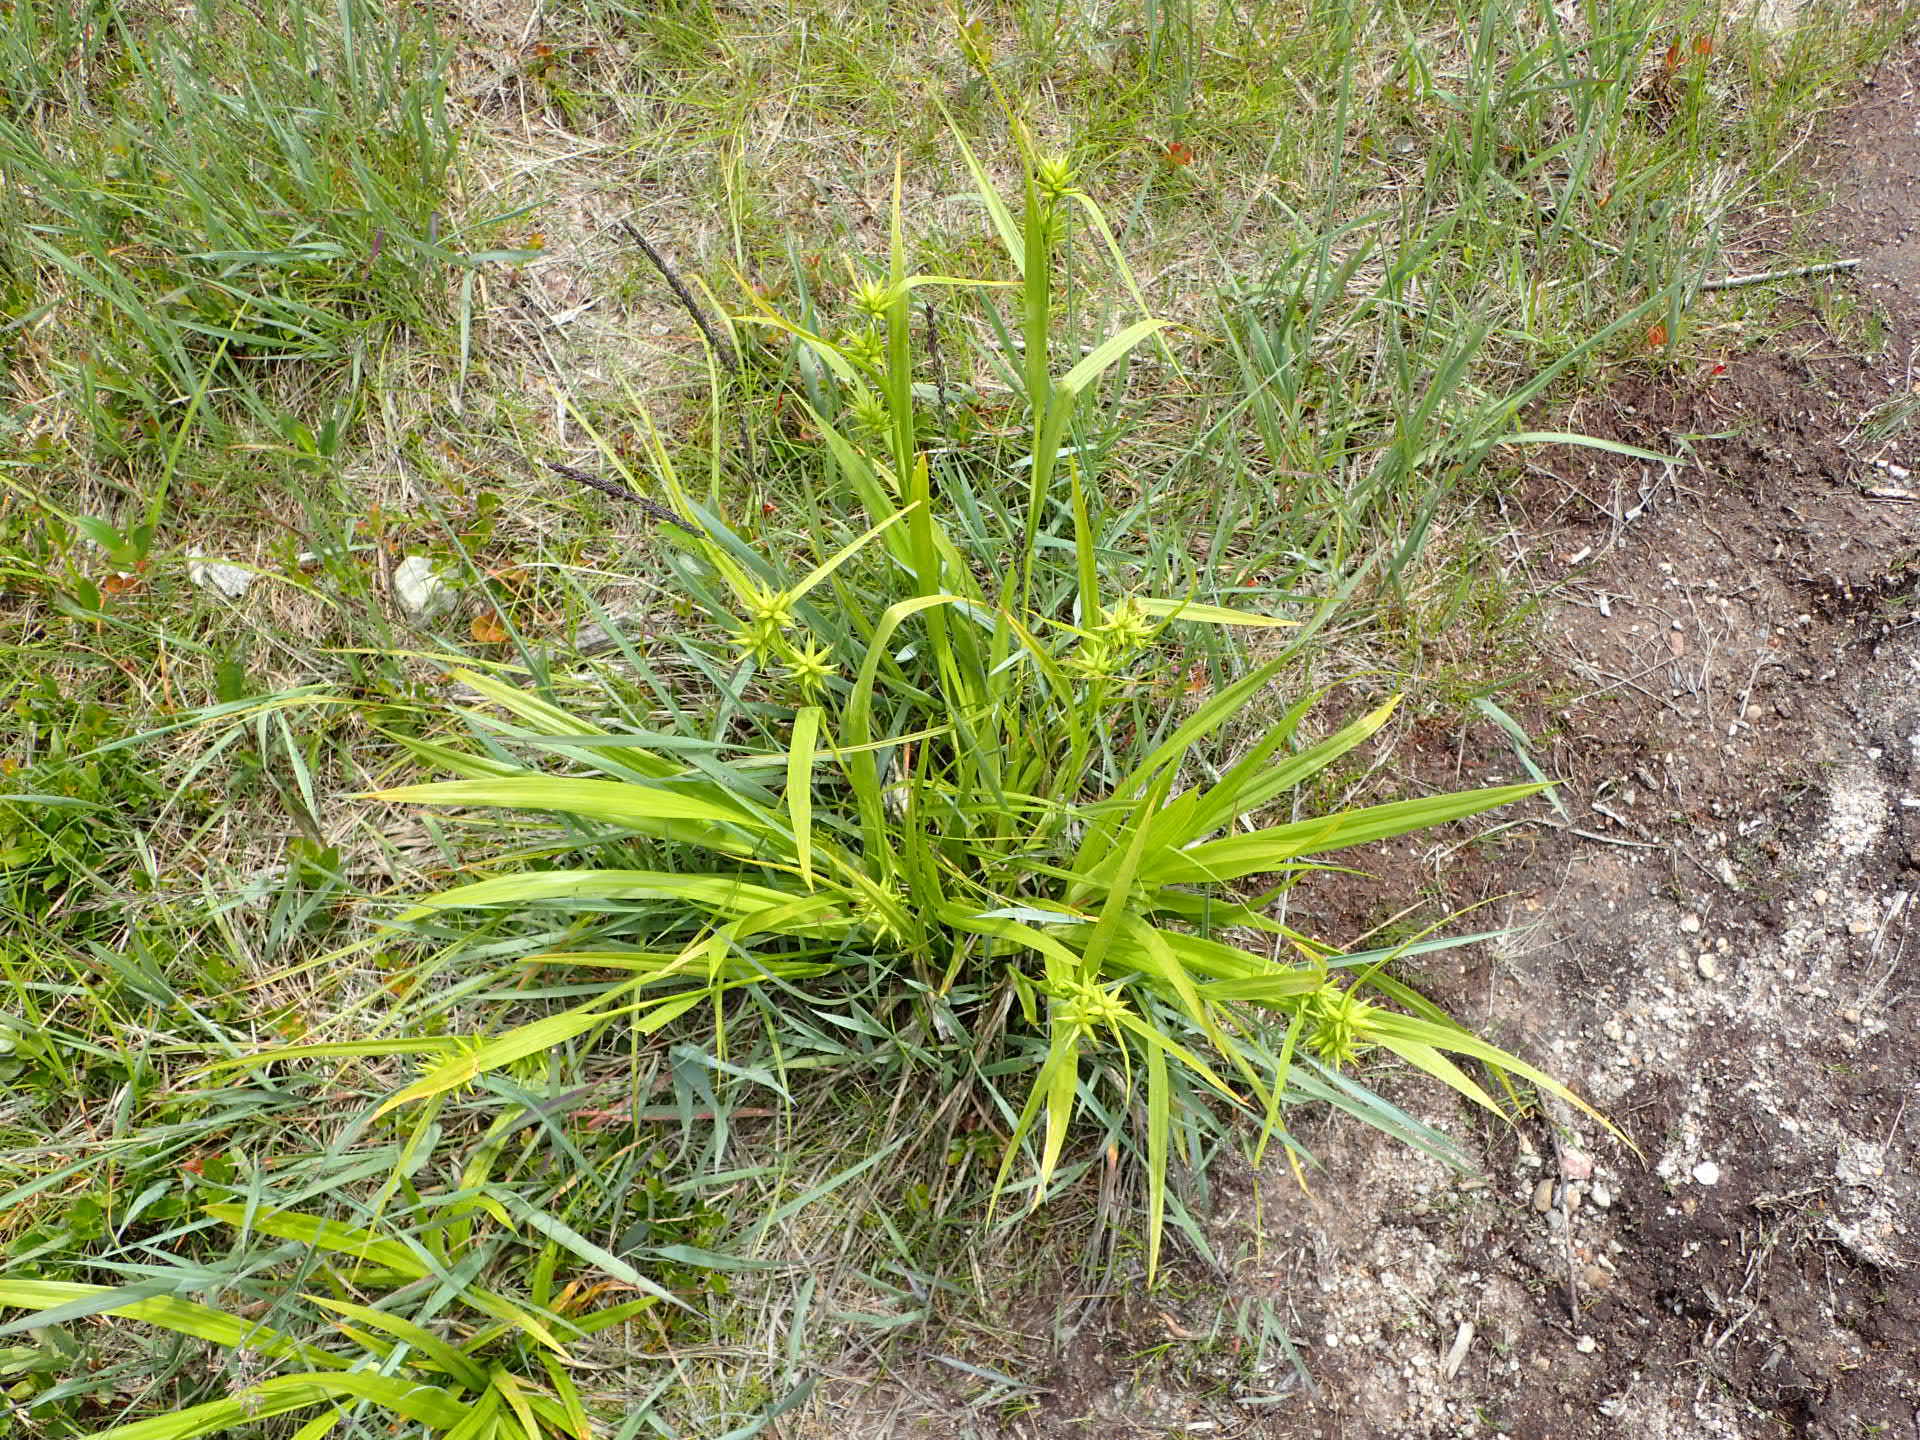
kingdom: Plantae
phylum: Tracheophyta
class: Liliopsida
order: Poales
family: Cyperaceae
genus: Carex
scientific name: Carex folliculata
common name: Northern long sedge
